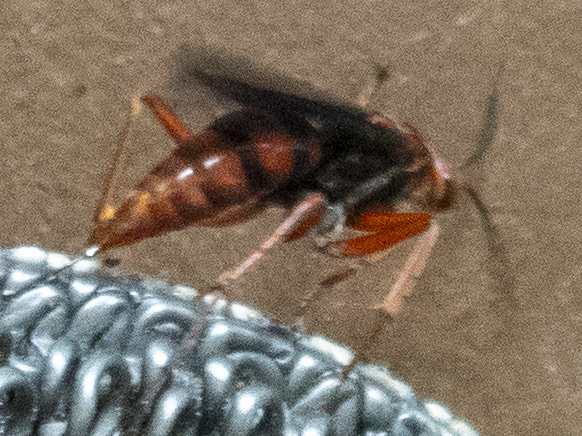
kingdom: Animalia
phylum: Arthropoda
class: Insecta
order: Hymenoptera
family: Pompilidae
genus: Tachypompilus
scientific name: Tachypompilus ferrugineus
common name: Rusty spider wasp
